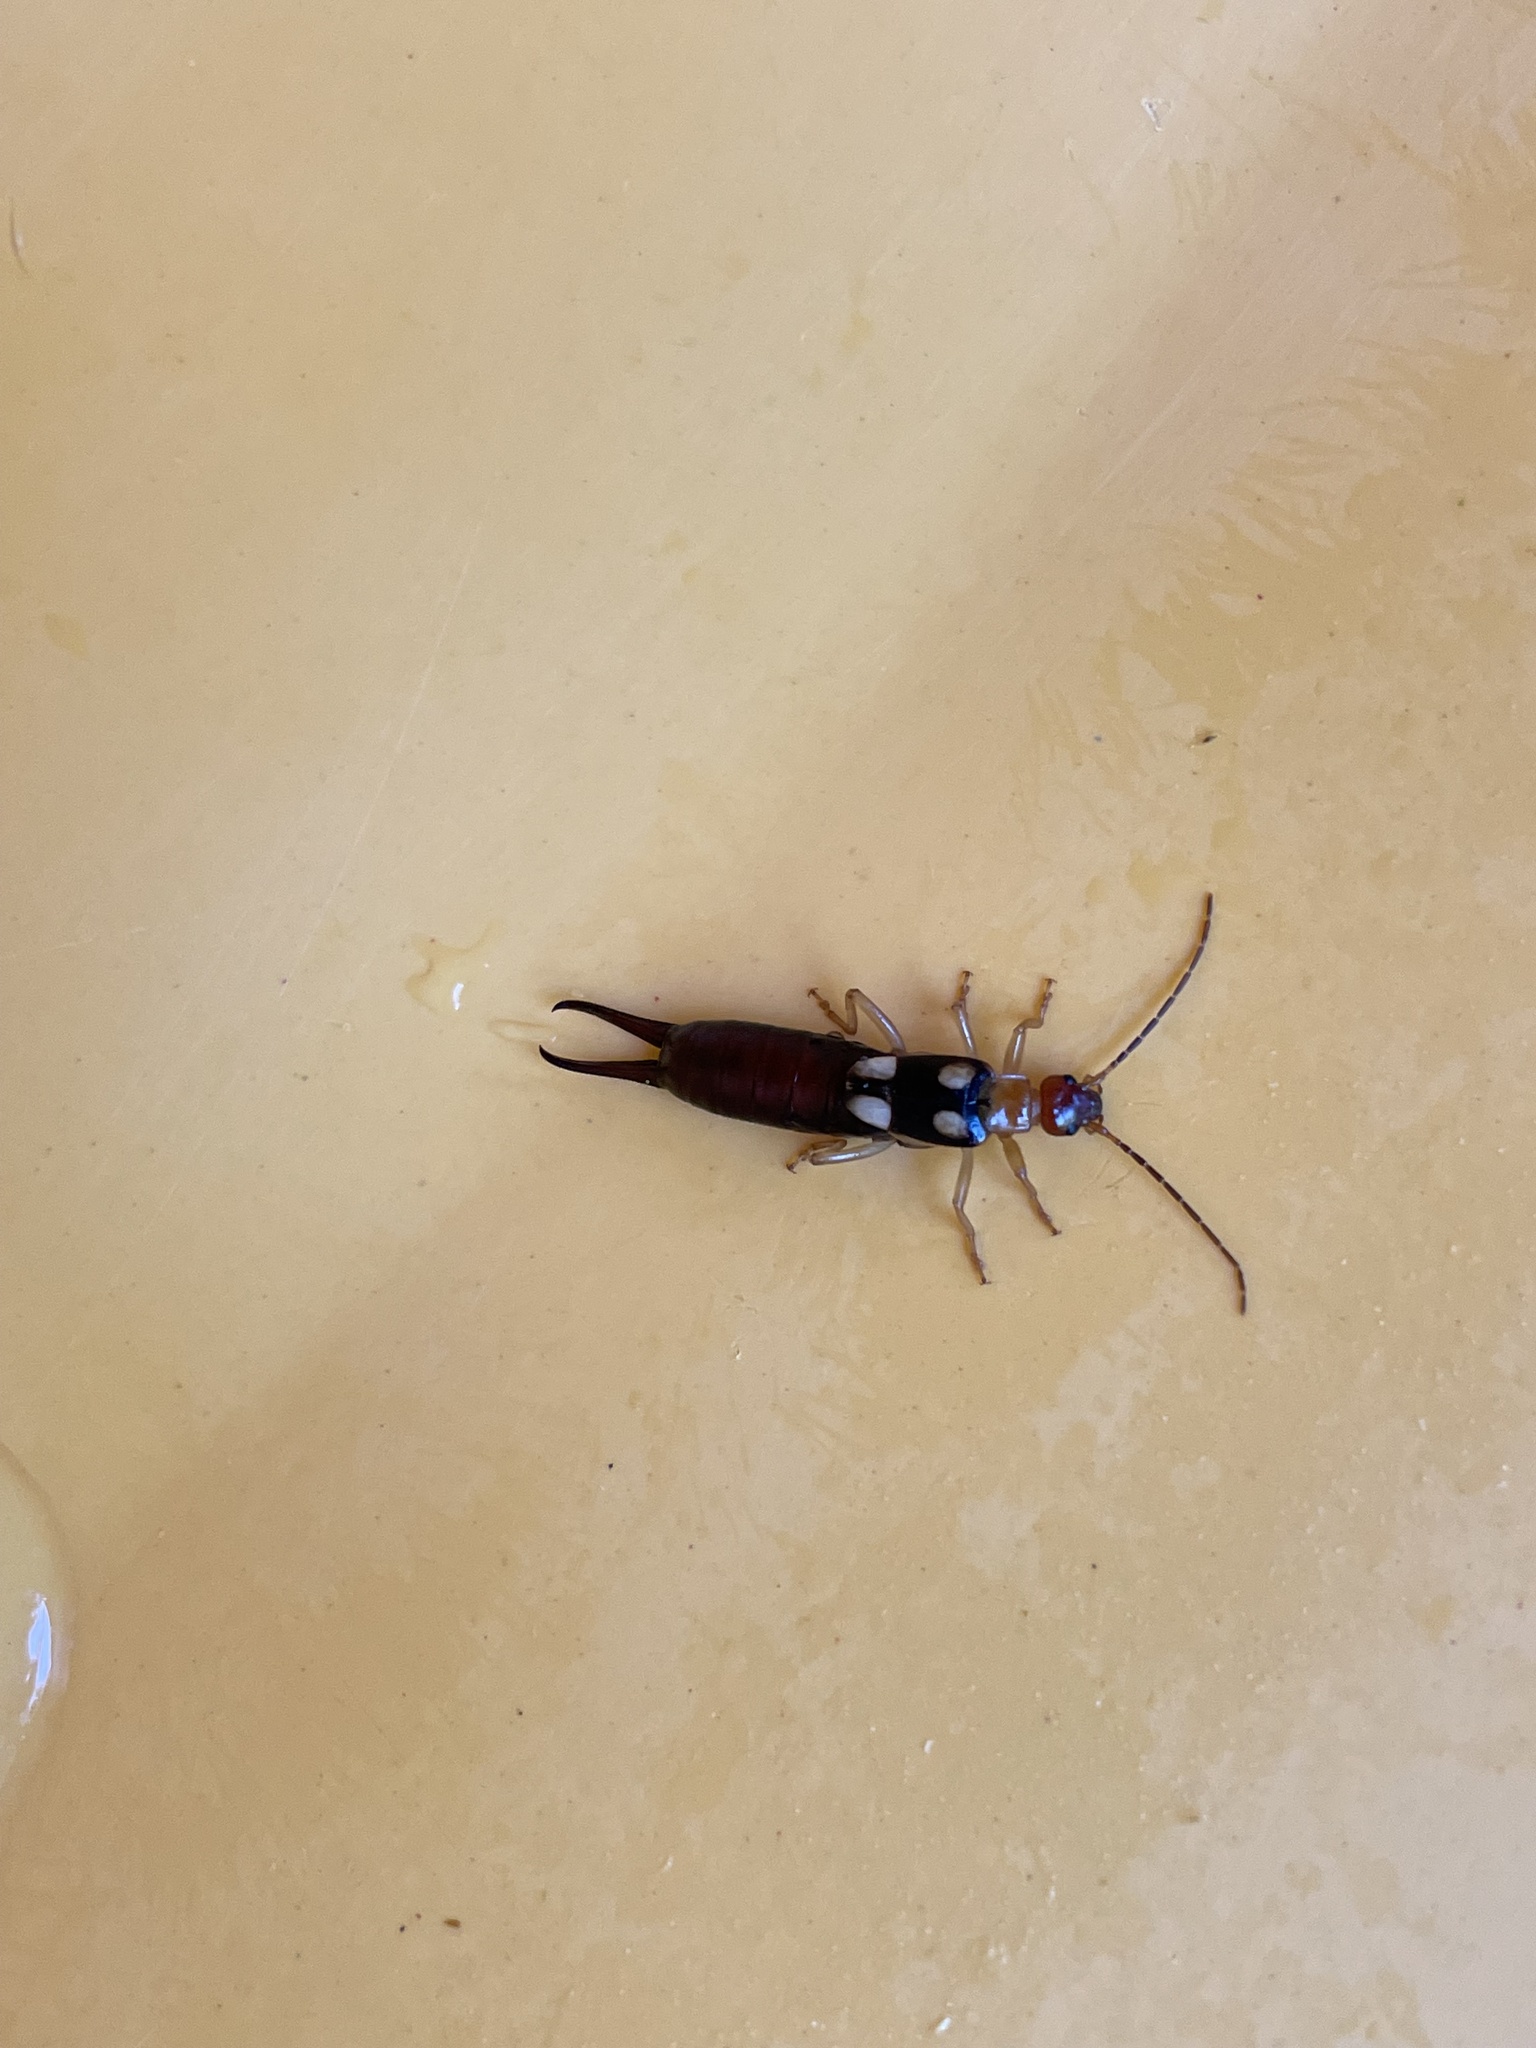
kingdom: Animalia
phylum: Arthropoda
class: Insecta
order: Dermaptera
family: Forficulidae
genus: Forficula
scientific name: Forficula smyrnensis
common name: Smyrna earwig
